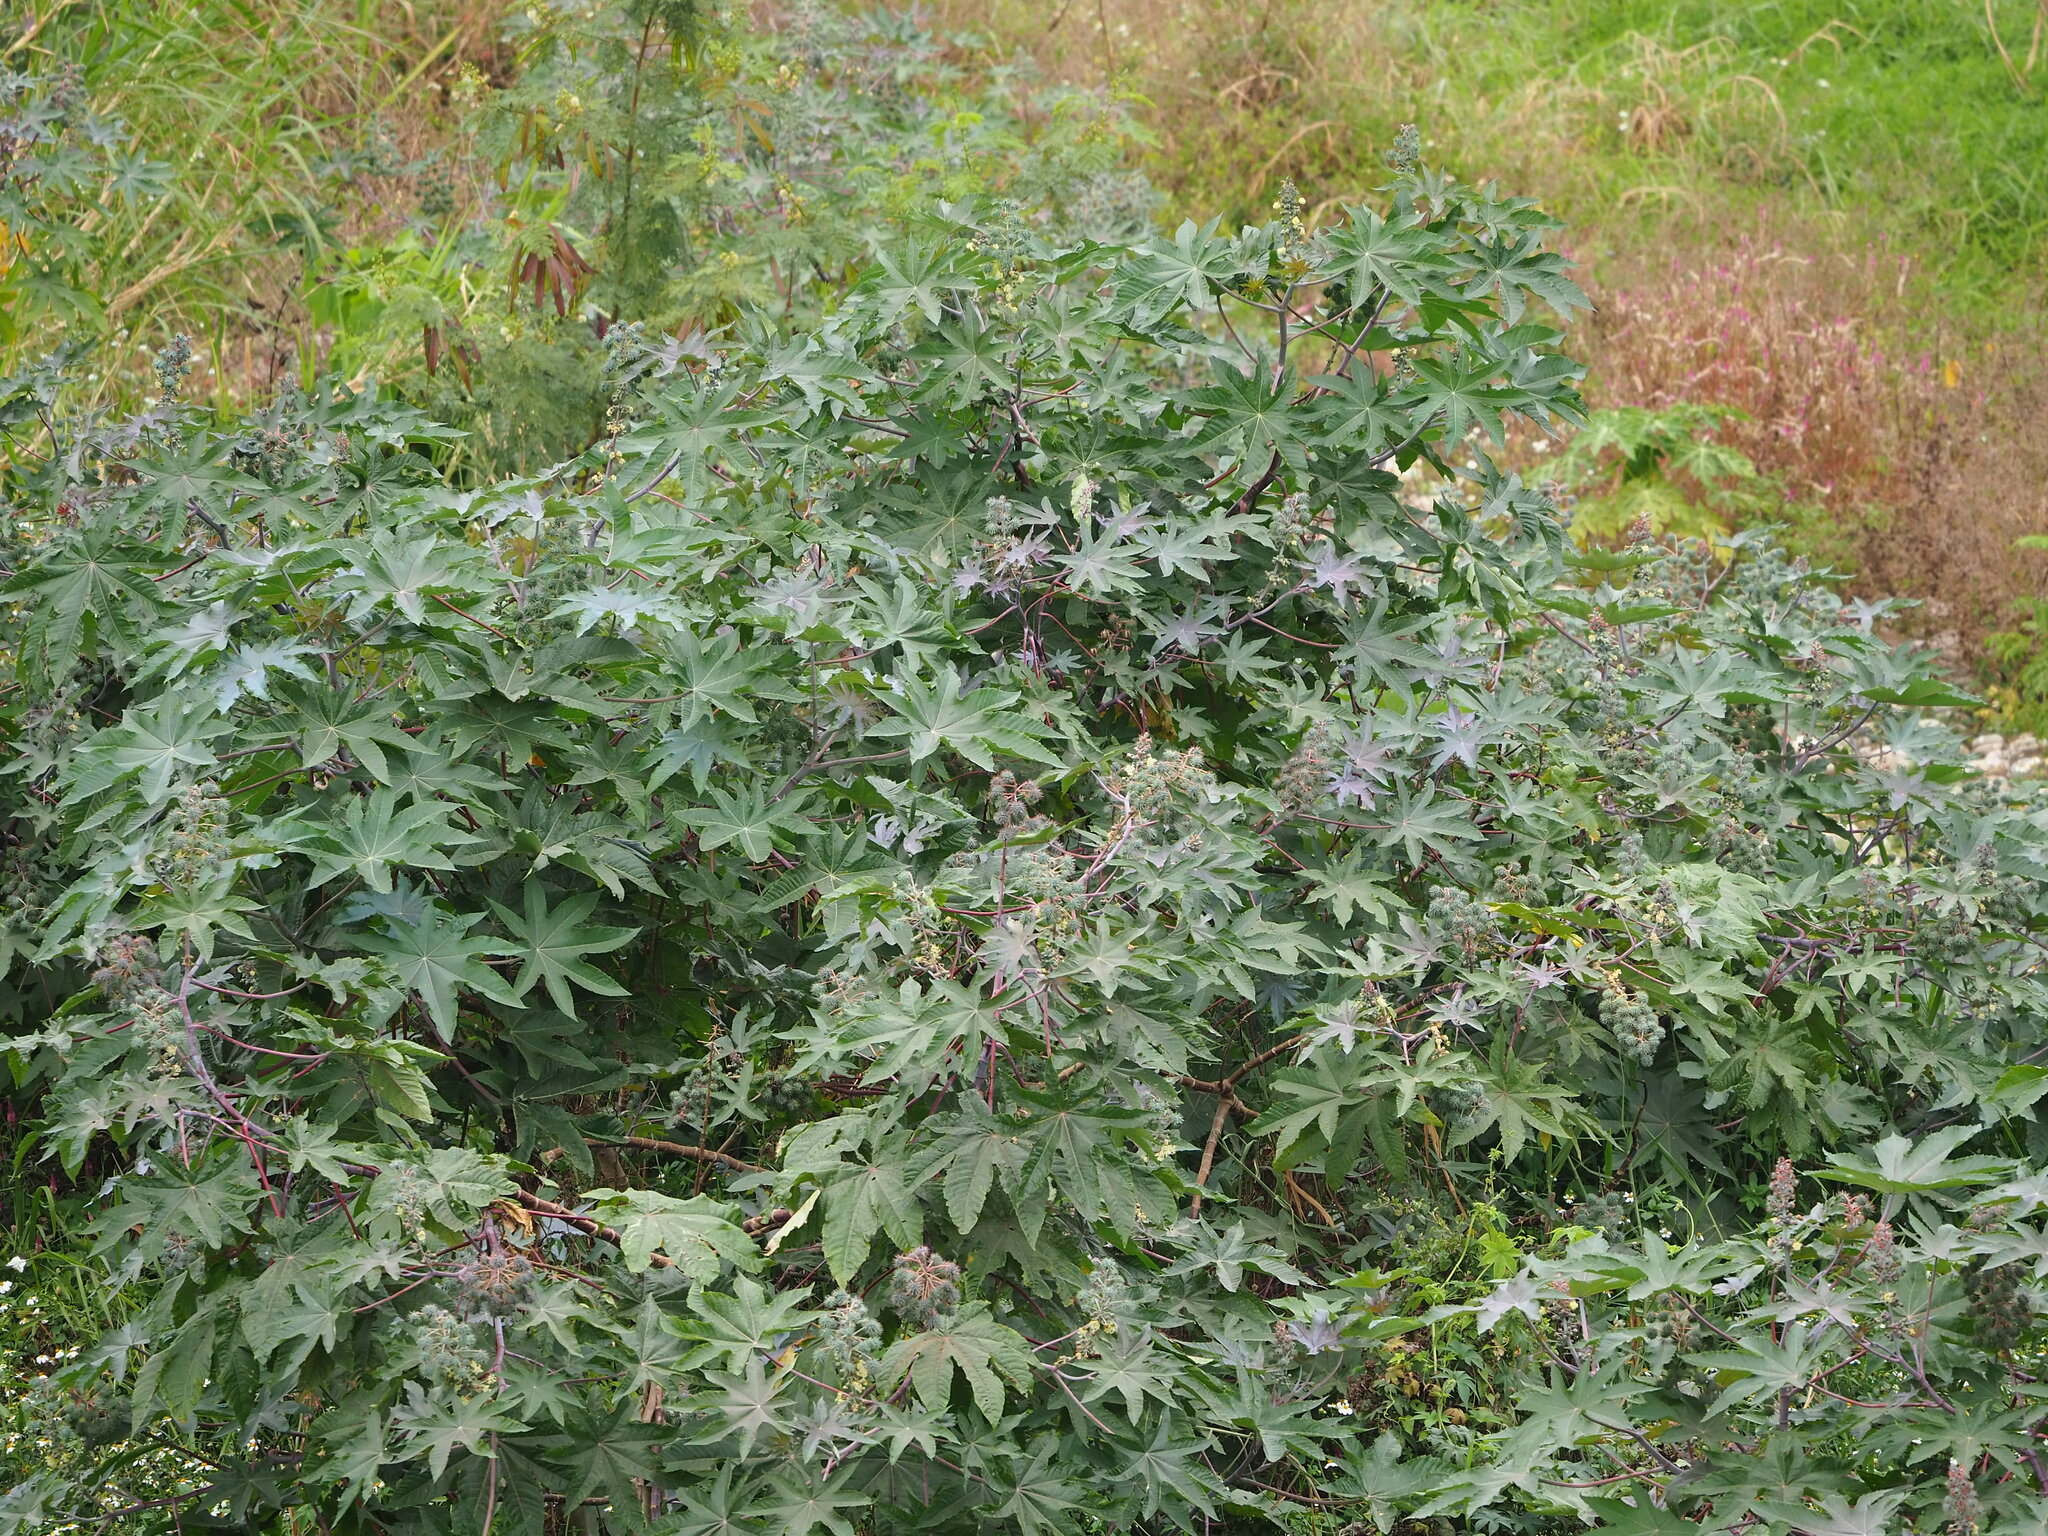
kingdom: Plantae
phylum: Tracheophyta
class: Magnoliopsida
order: Malpighiales
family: Euphorbiaceae
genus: Ricinus
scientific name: Ricinus communis
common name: Castor-oil-plant
